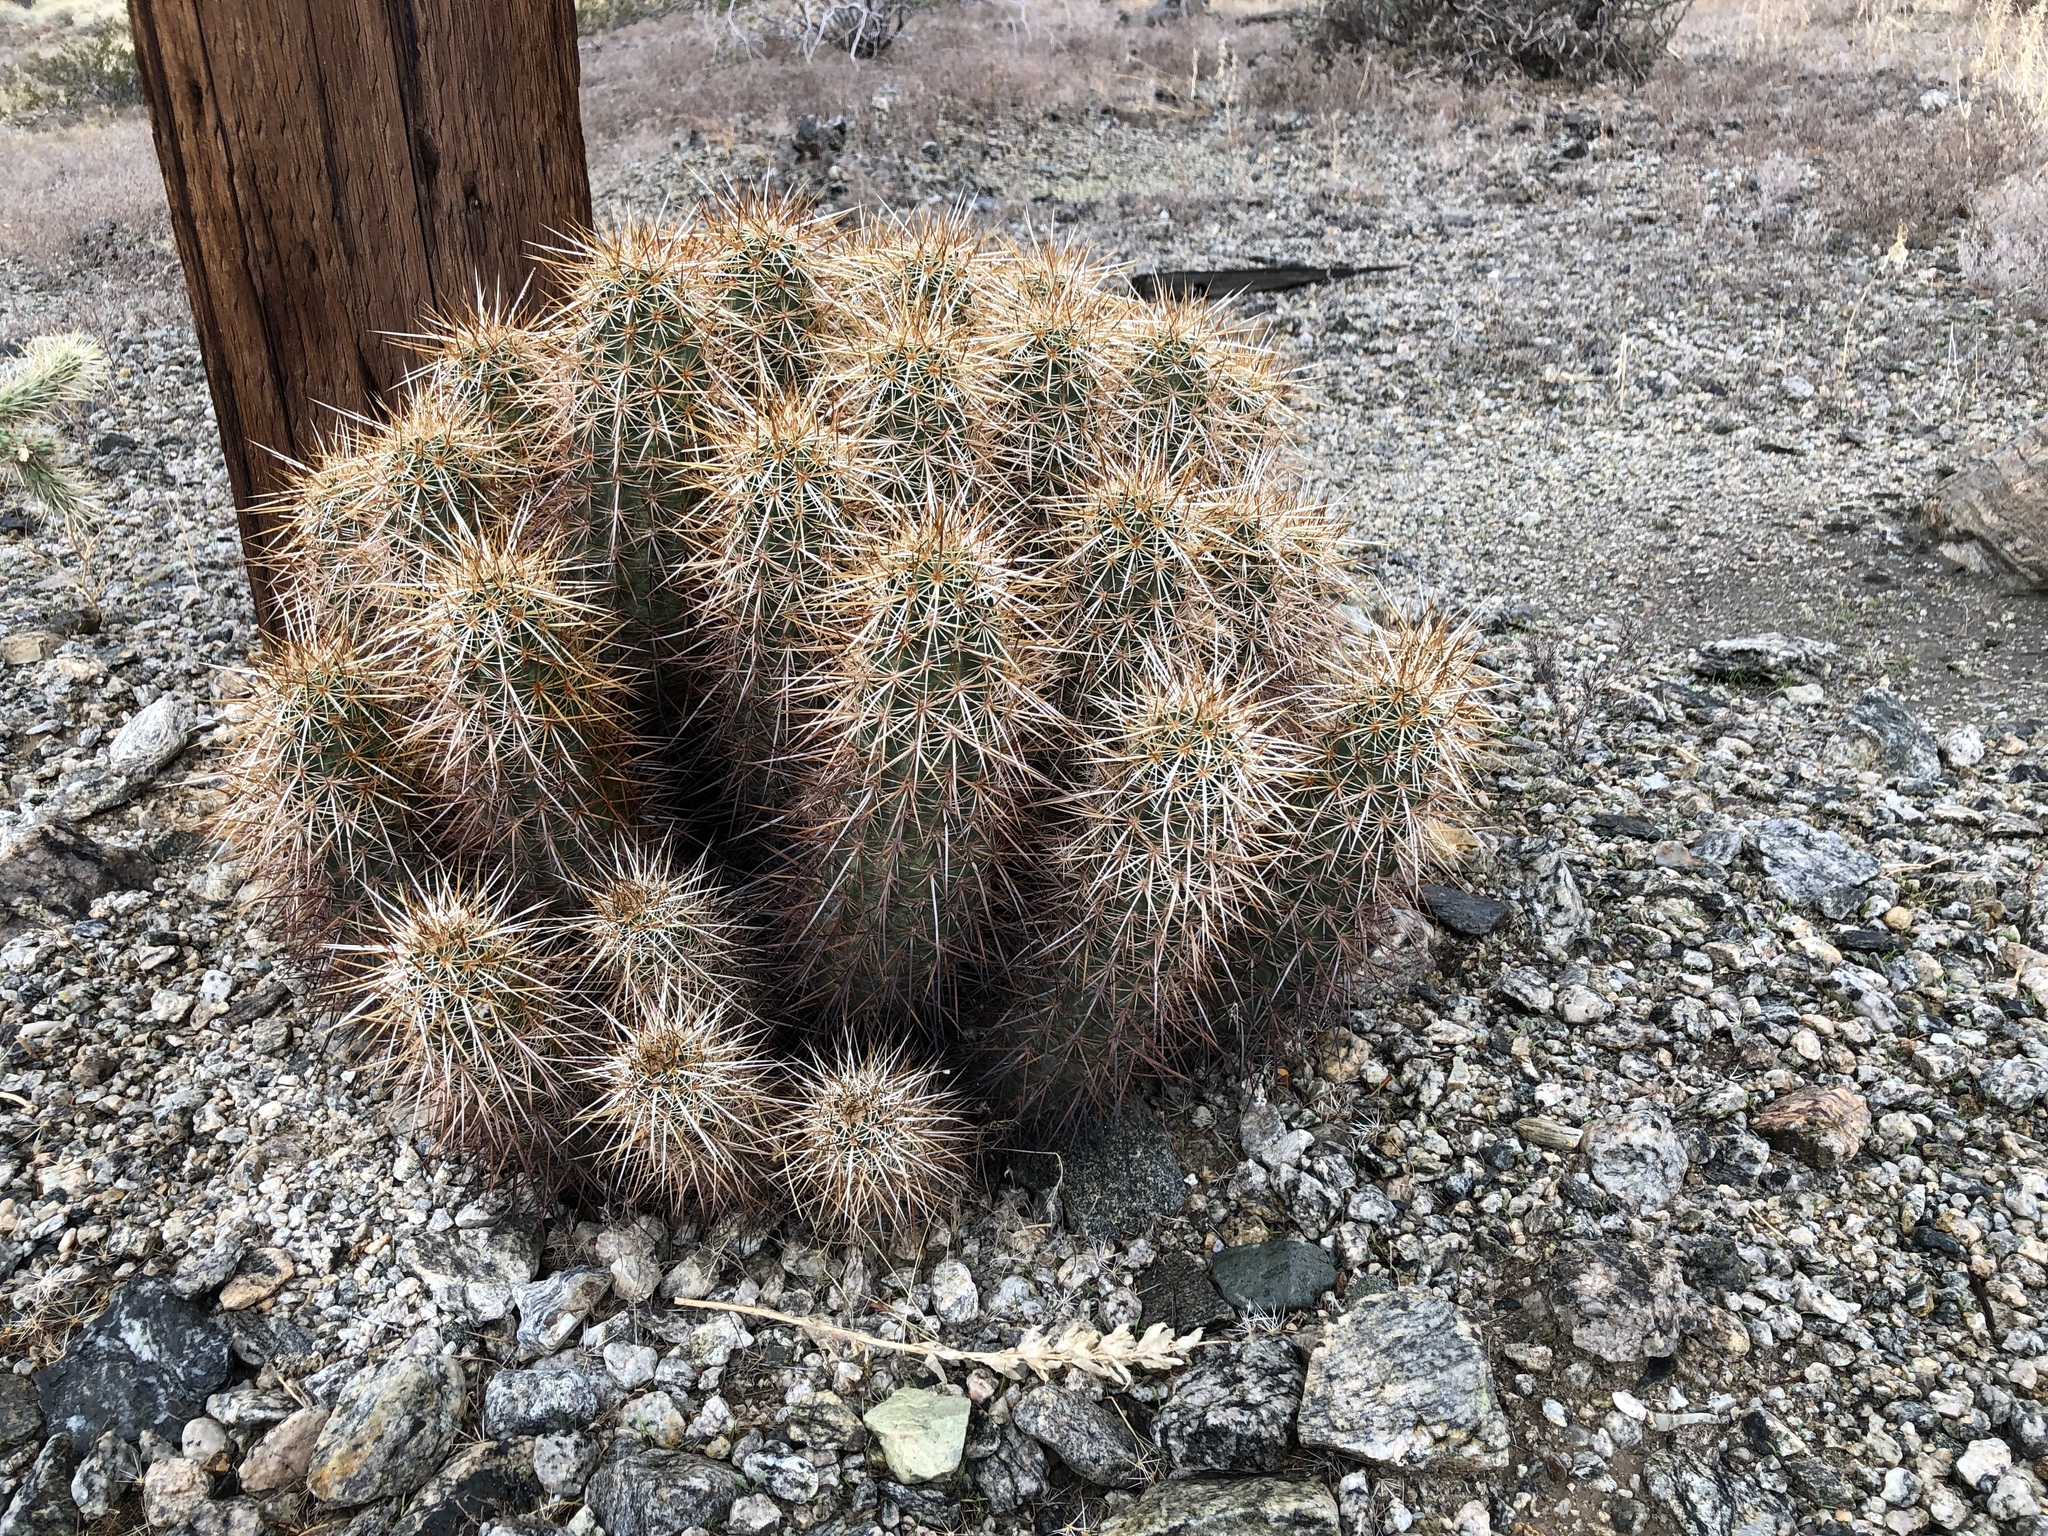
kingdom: Plantae
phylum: Tracheophyta
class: Magnoliopsida
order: Caryophyllales
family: Cactaceae
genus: Echinocereus
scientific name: Echinocereus engelmannii
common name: Engelmann's hedgehog cactus
